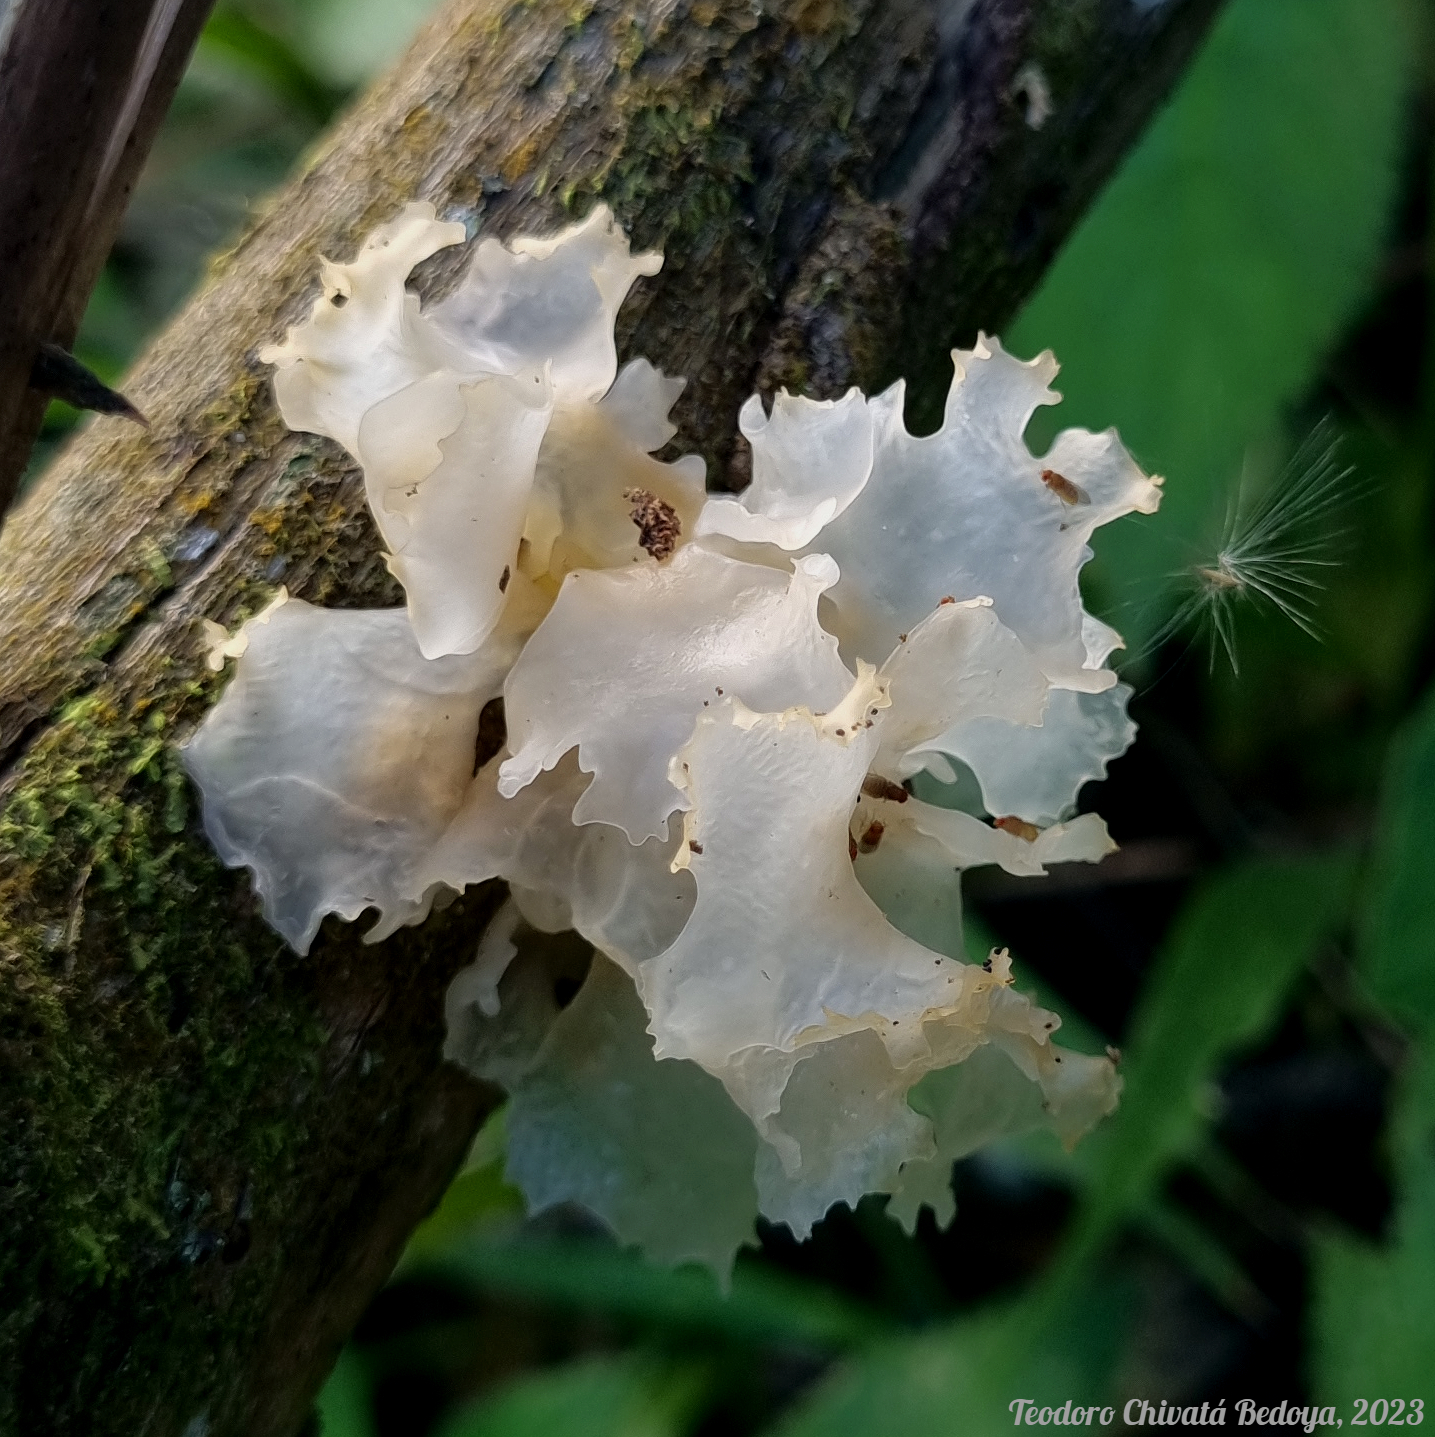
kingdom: Fungi
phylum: Basidiomycota
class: Tremellomycetes
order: Tremellales
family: Tremellaceae
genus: Tremella
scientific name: Tremella fuciformis
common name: Snow fungus
